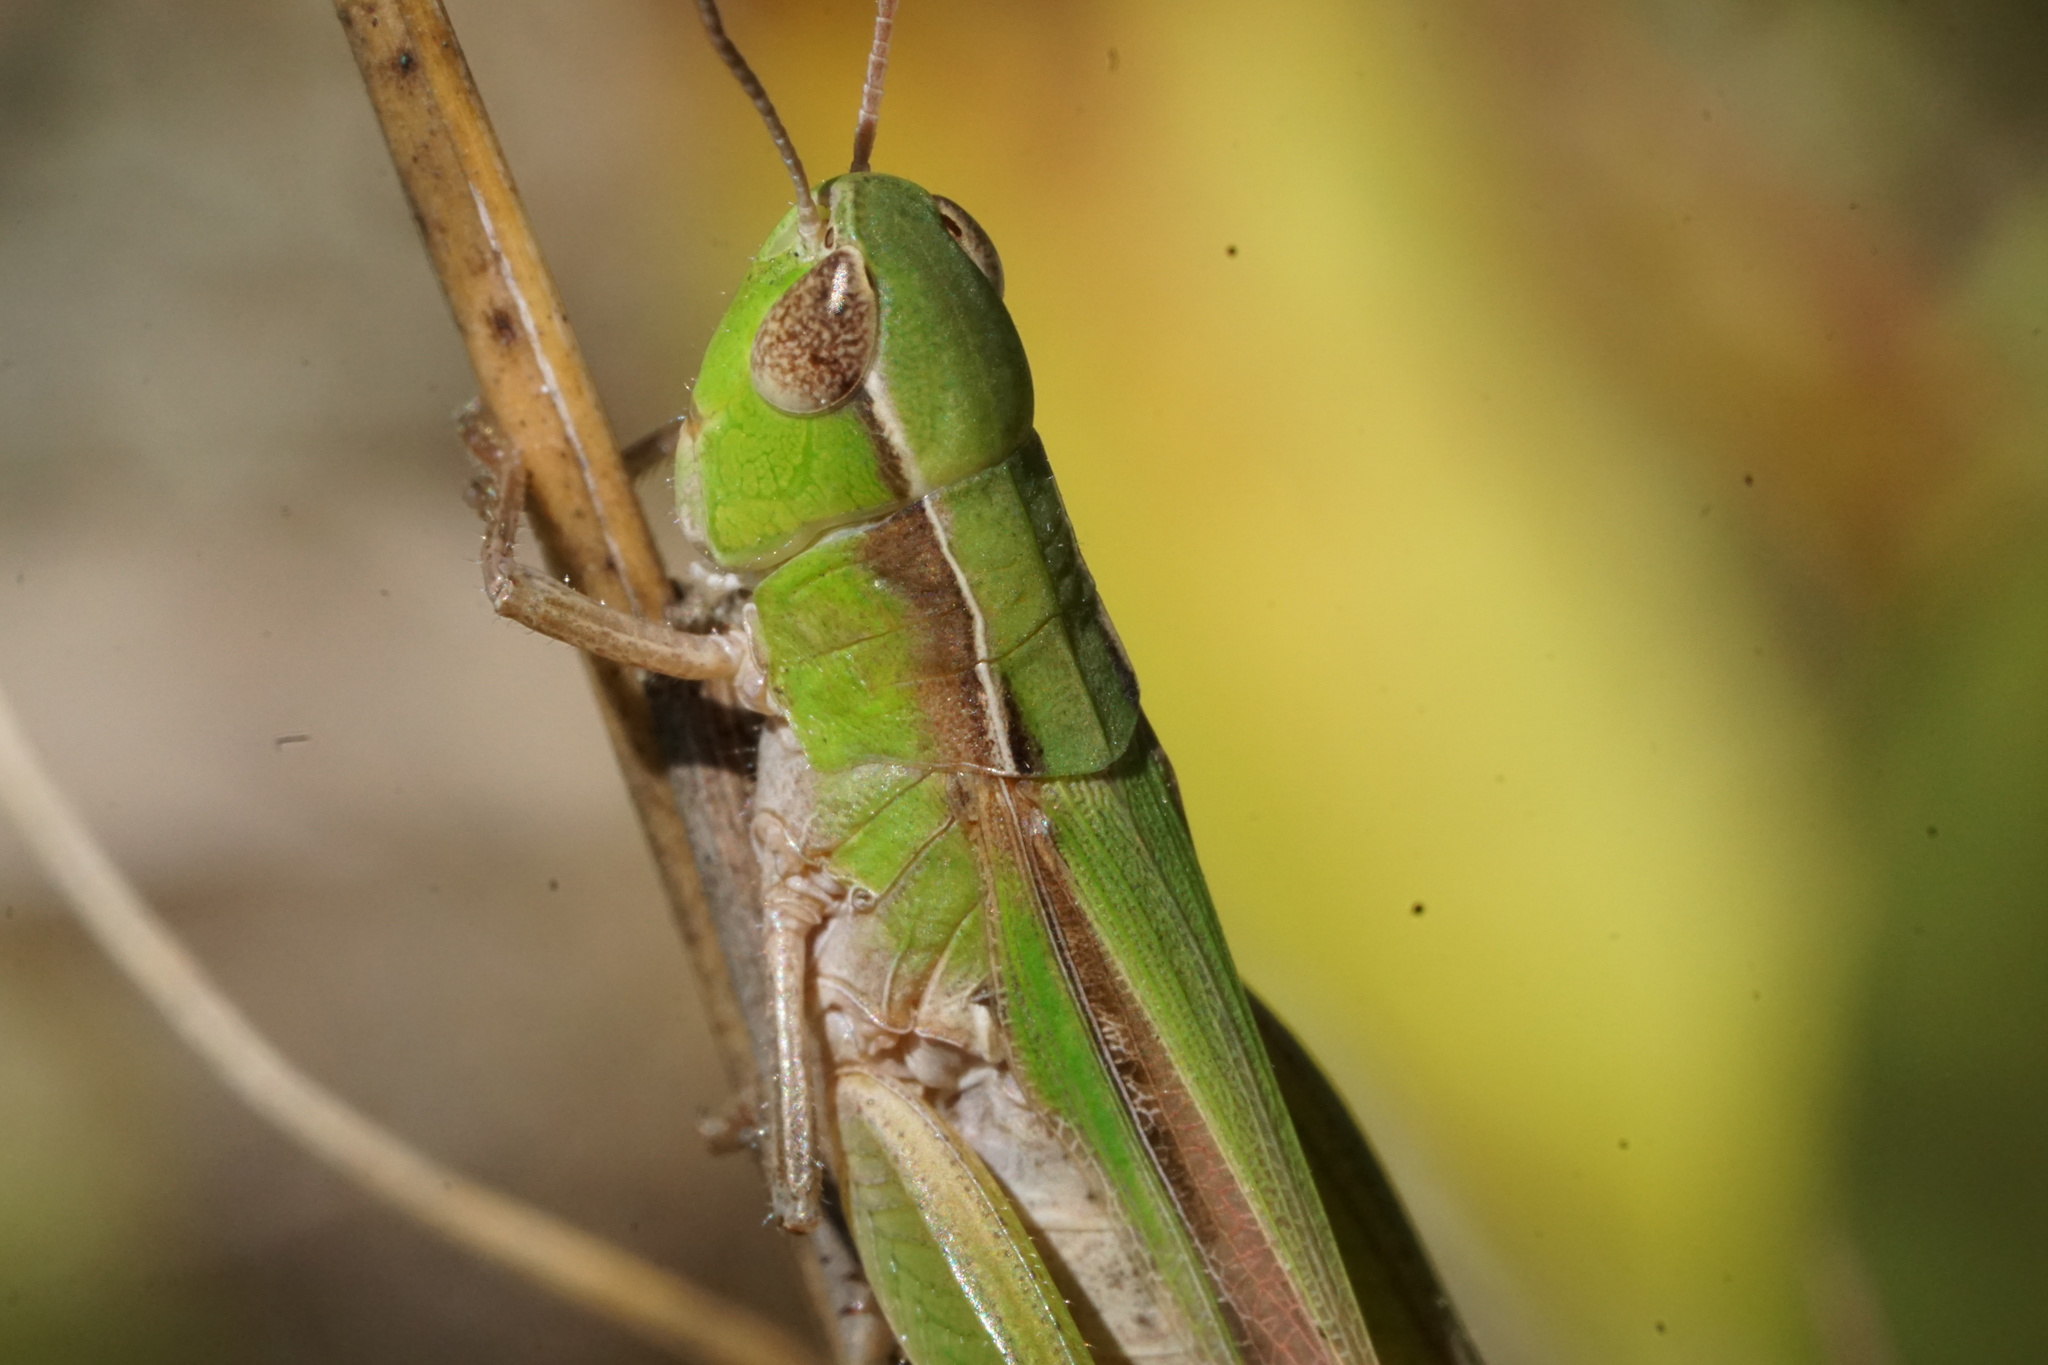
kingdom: Animalia
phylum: Arthropoda
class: Insecta
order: Orthoptera
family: Acrididae
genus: Orphulella
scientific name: Orphulella speciosa
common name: Pasture grasshopper
